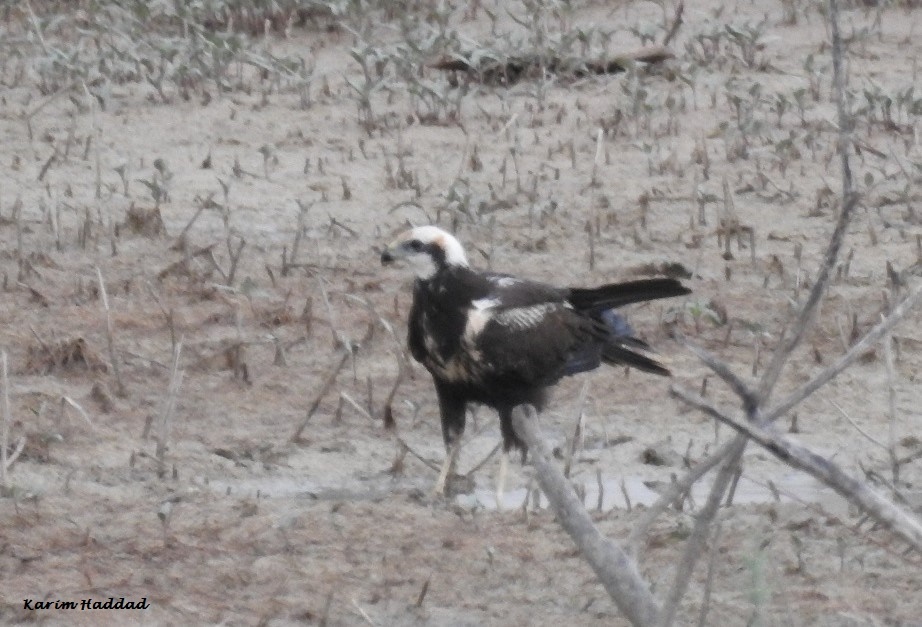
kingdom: Animalia
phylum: Chordata
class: Aves
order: Accipitriformes
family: Accipitridae
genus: Circus
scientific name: Circus aeruginosus
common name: Western marsh harrier
